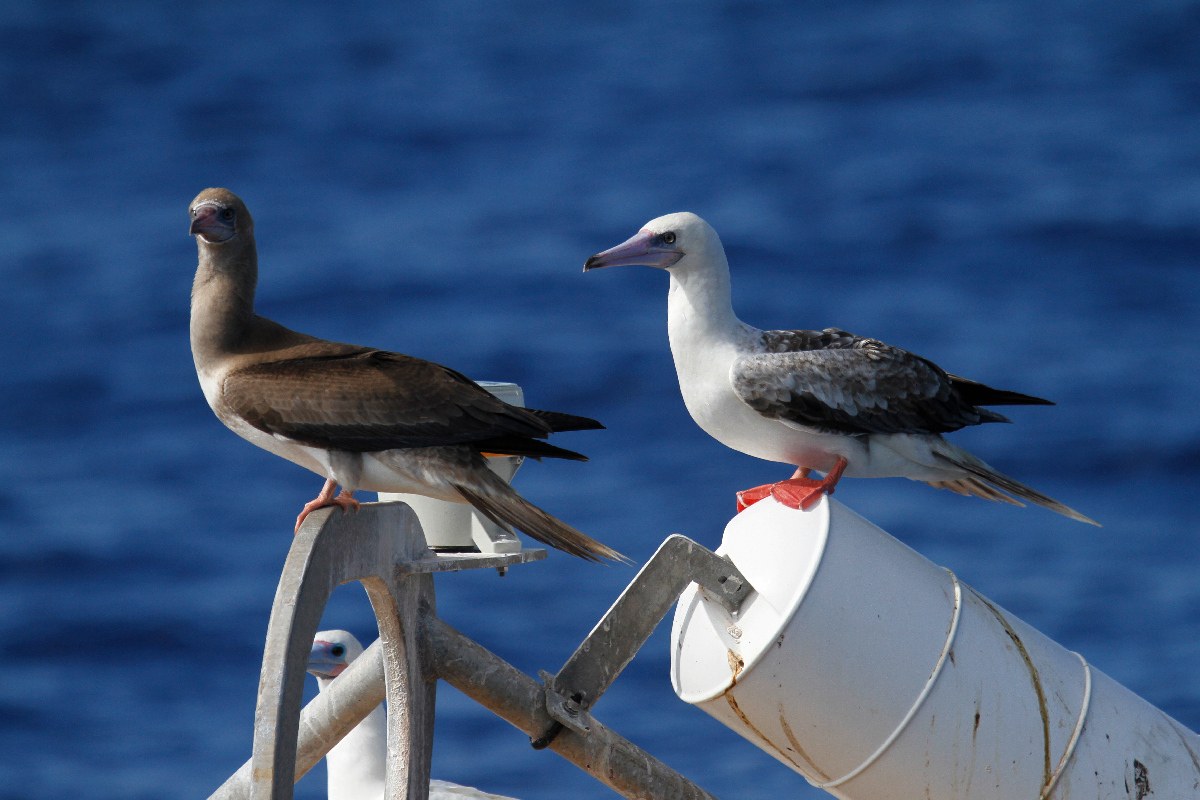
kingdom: Animalia
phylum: Chordata
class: Aves
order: Suliformes
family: Sulidae
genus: Sula
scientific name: Sula sula
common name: Red-footed booby
